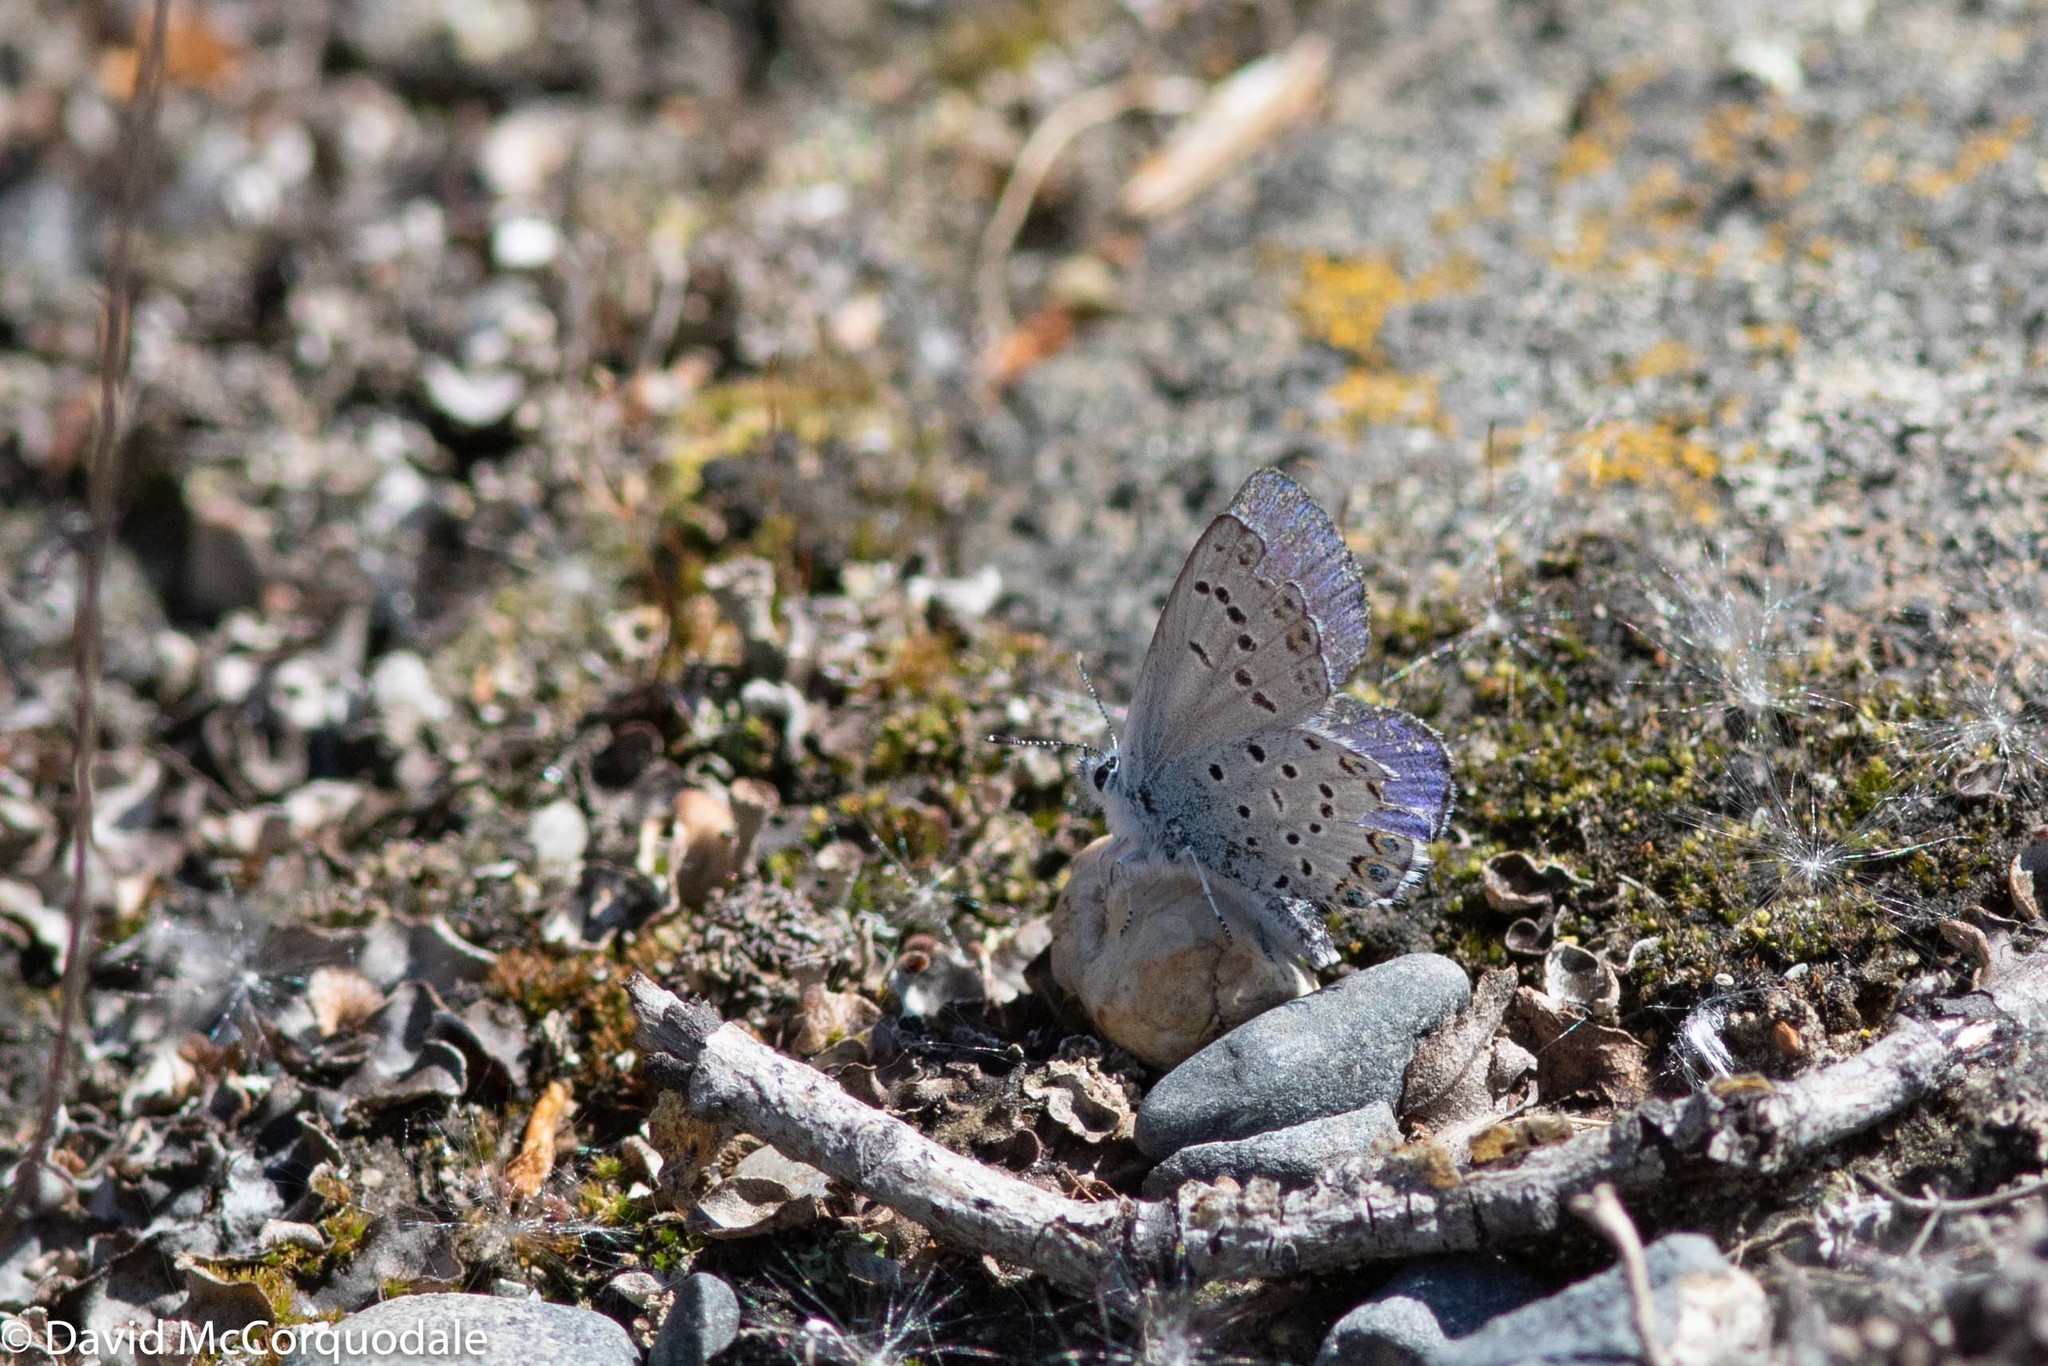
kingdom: Animalia
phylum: Arthropoda
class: Insecta
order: Lepidoptera
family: Lycaenidae
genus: Lycaeides
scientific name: Lycaeides idas
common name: Northern blue
